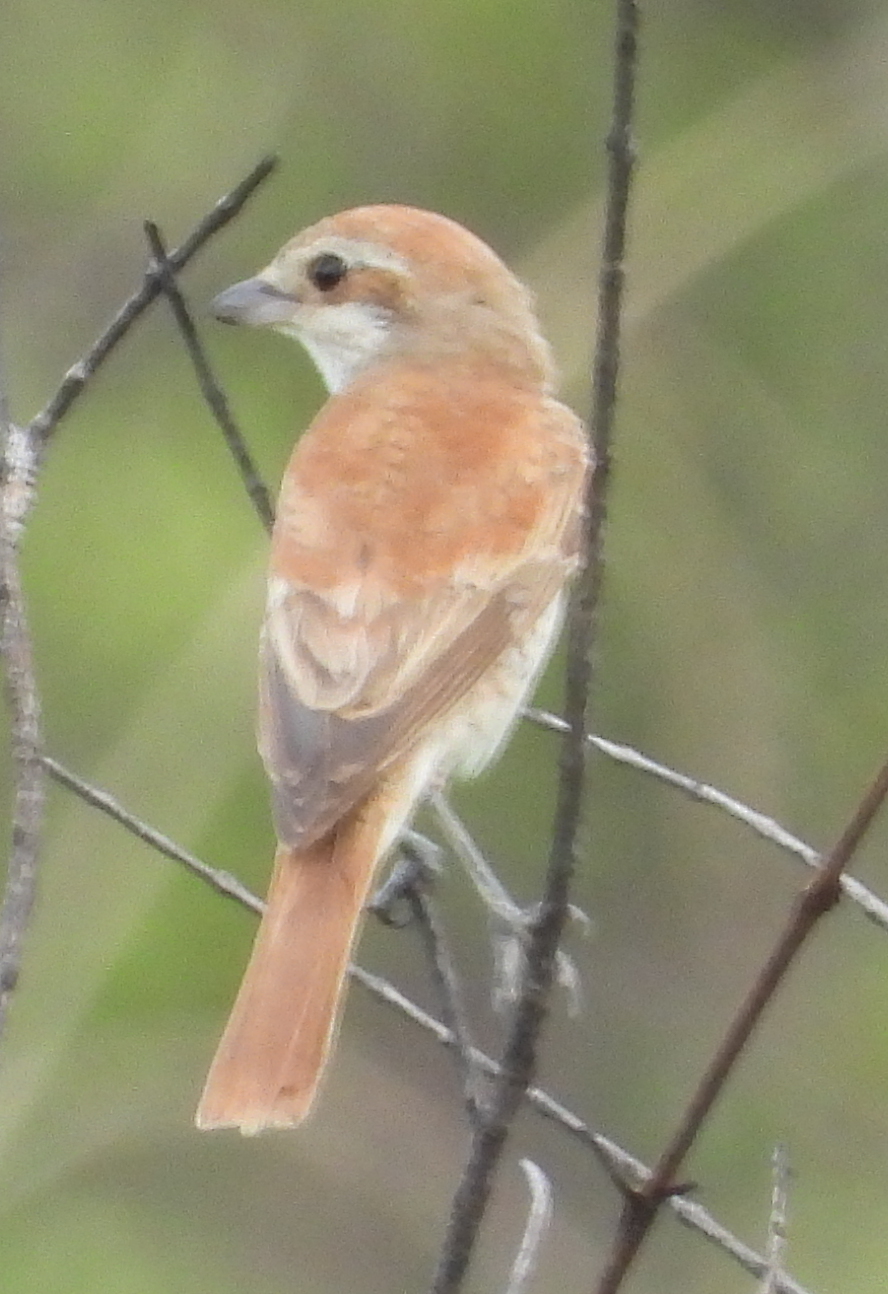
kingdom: Animalia
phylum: Chordata
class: Aves
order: Passeriformes
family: Laniidae
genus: Lanius
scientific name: Lanius collurio
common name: Red-backed shrike
